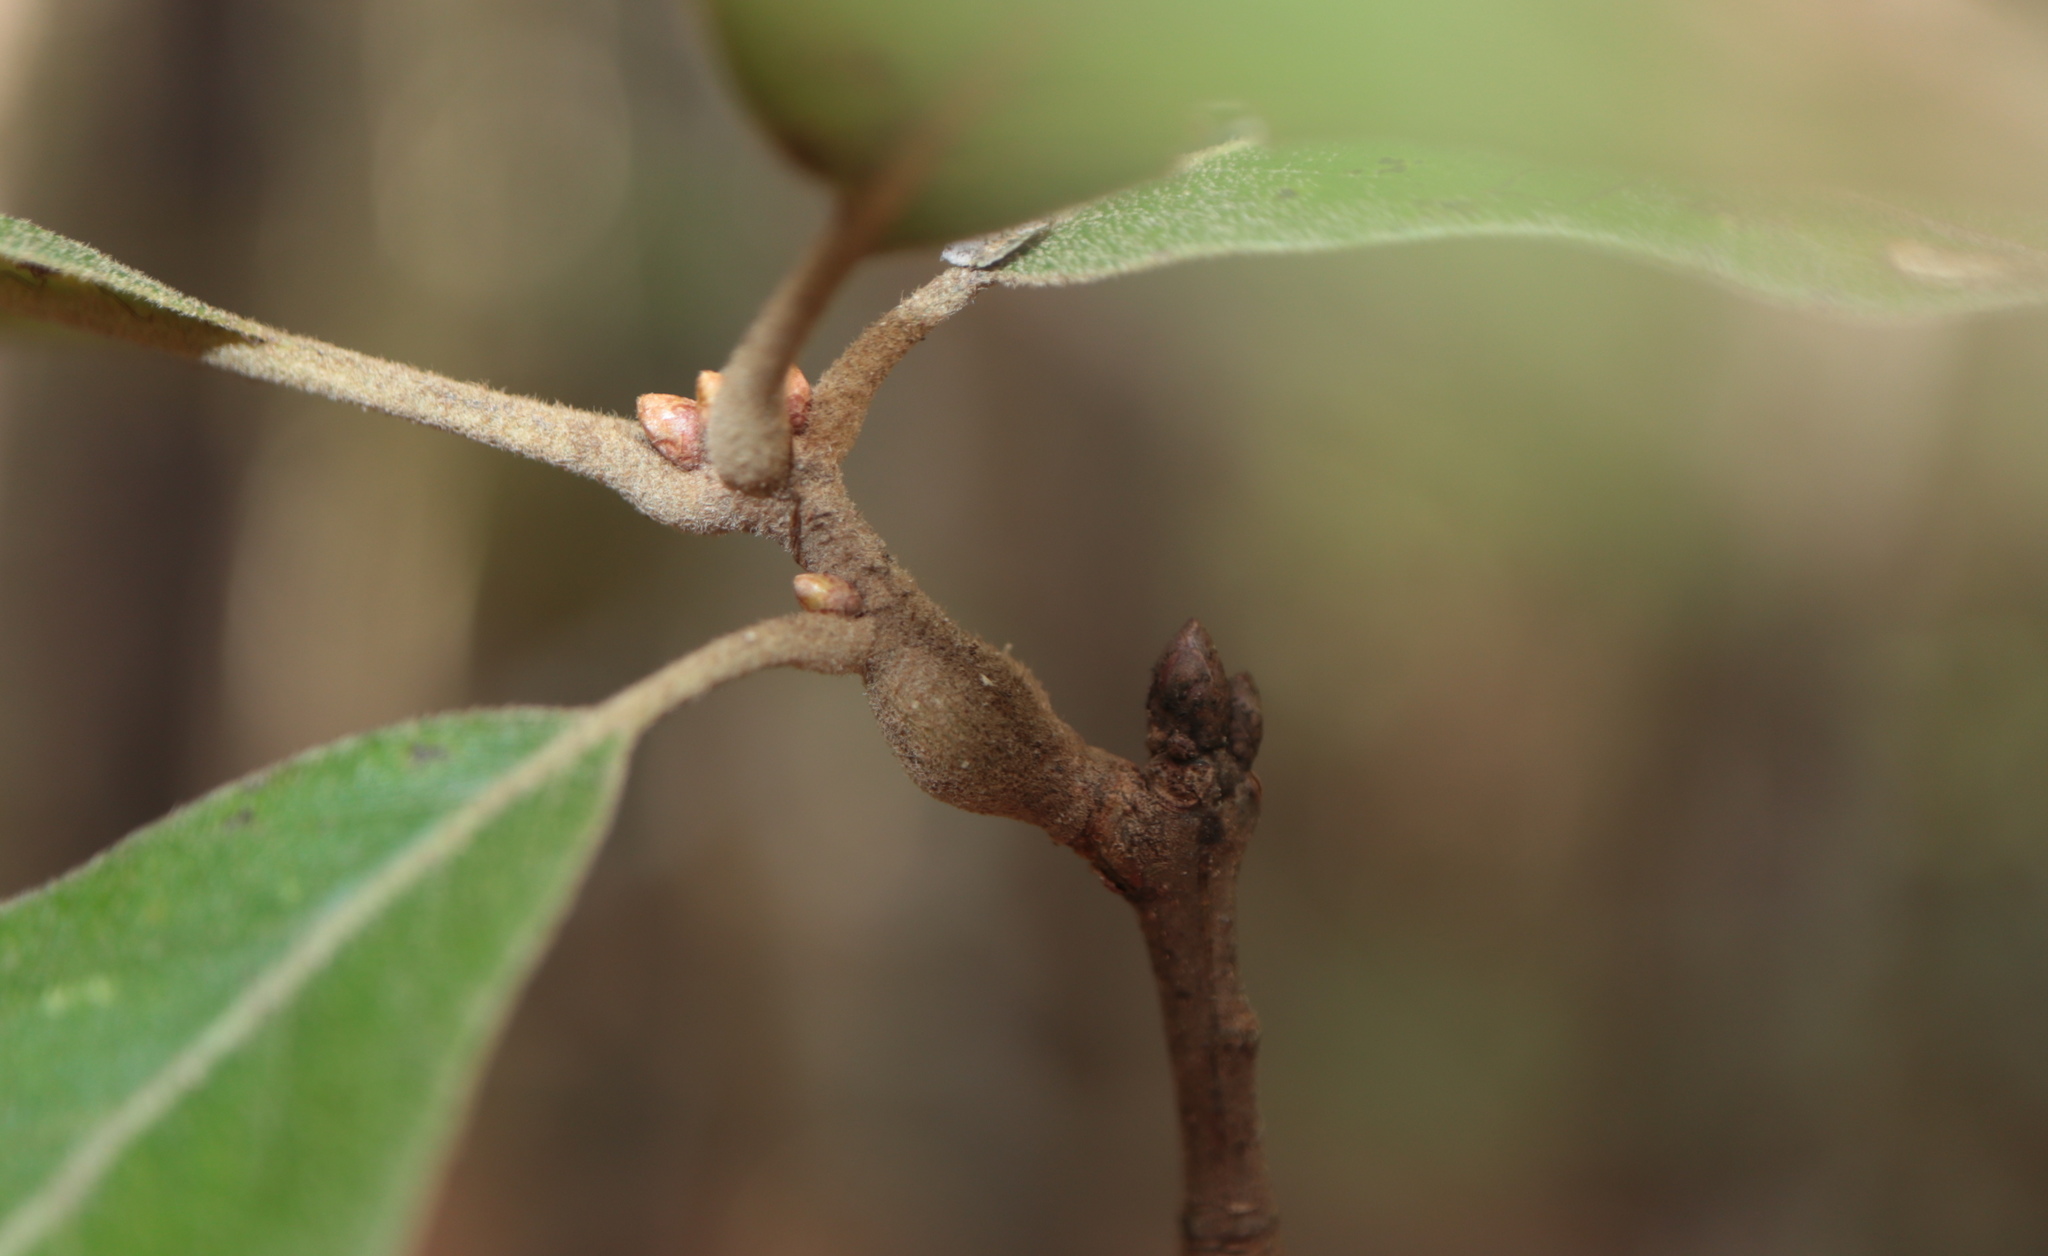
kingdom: Animalia
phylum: Arthropoda
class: Insecta
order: Hymenoptera
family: Cynipidae
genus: Zapatella
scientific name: Zapatella quercusphellos
